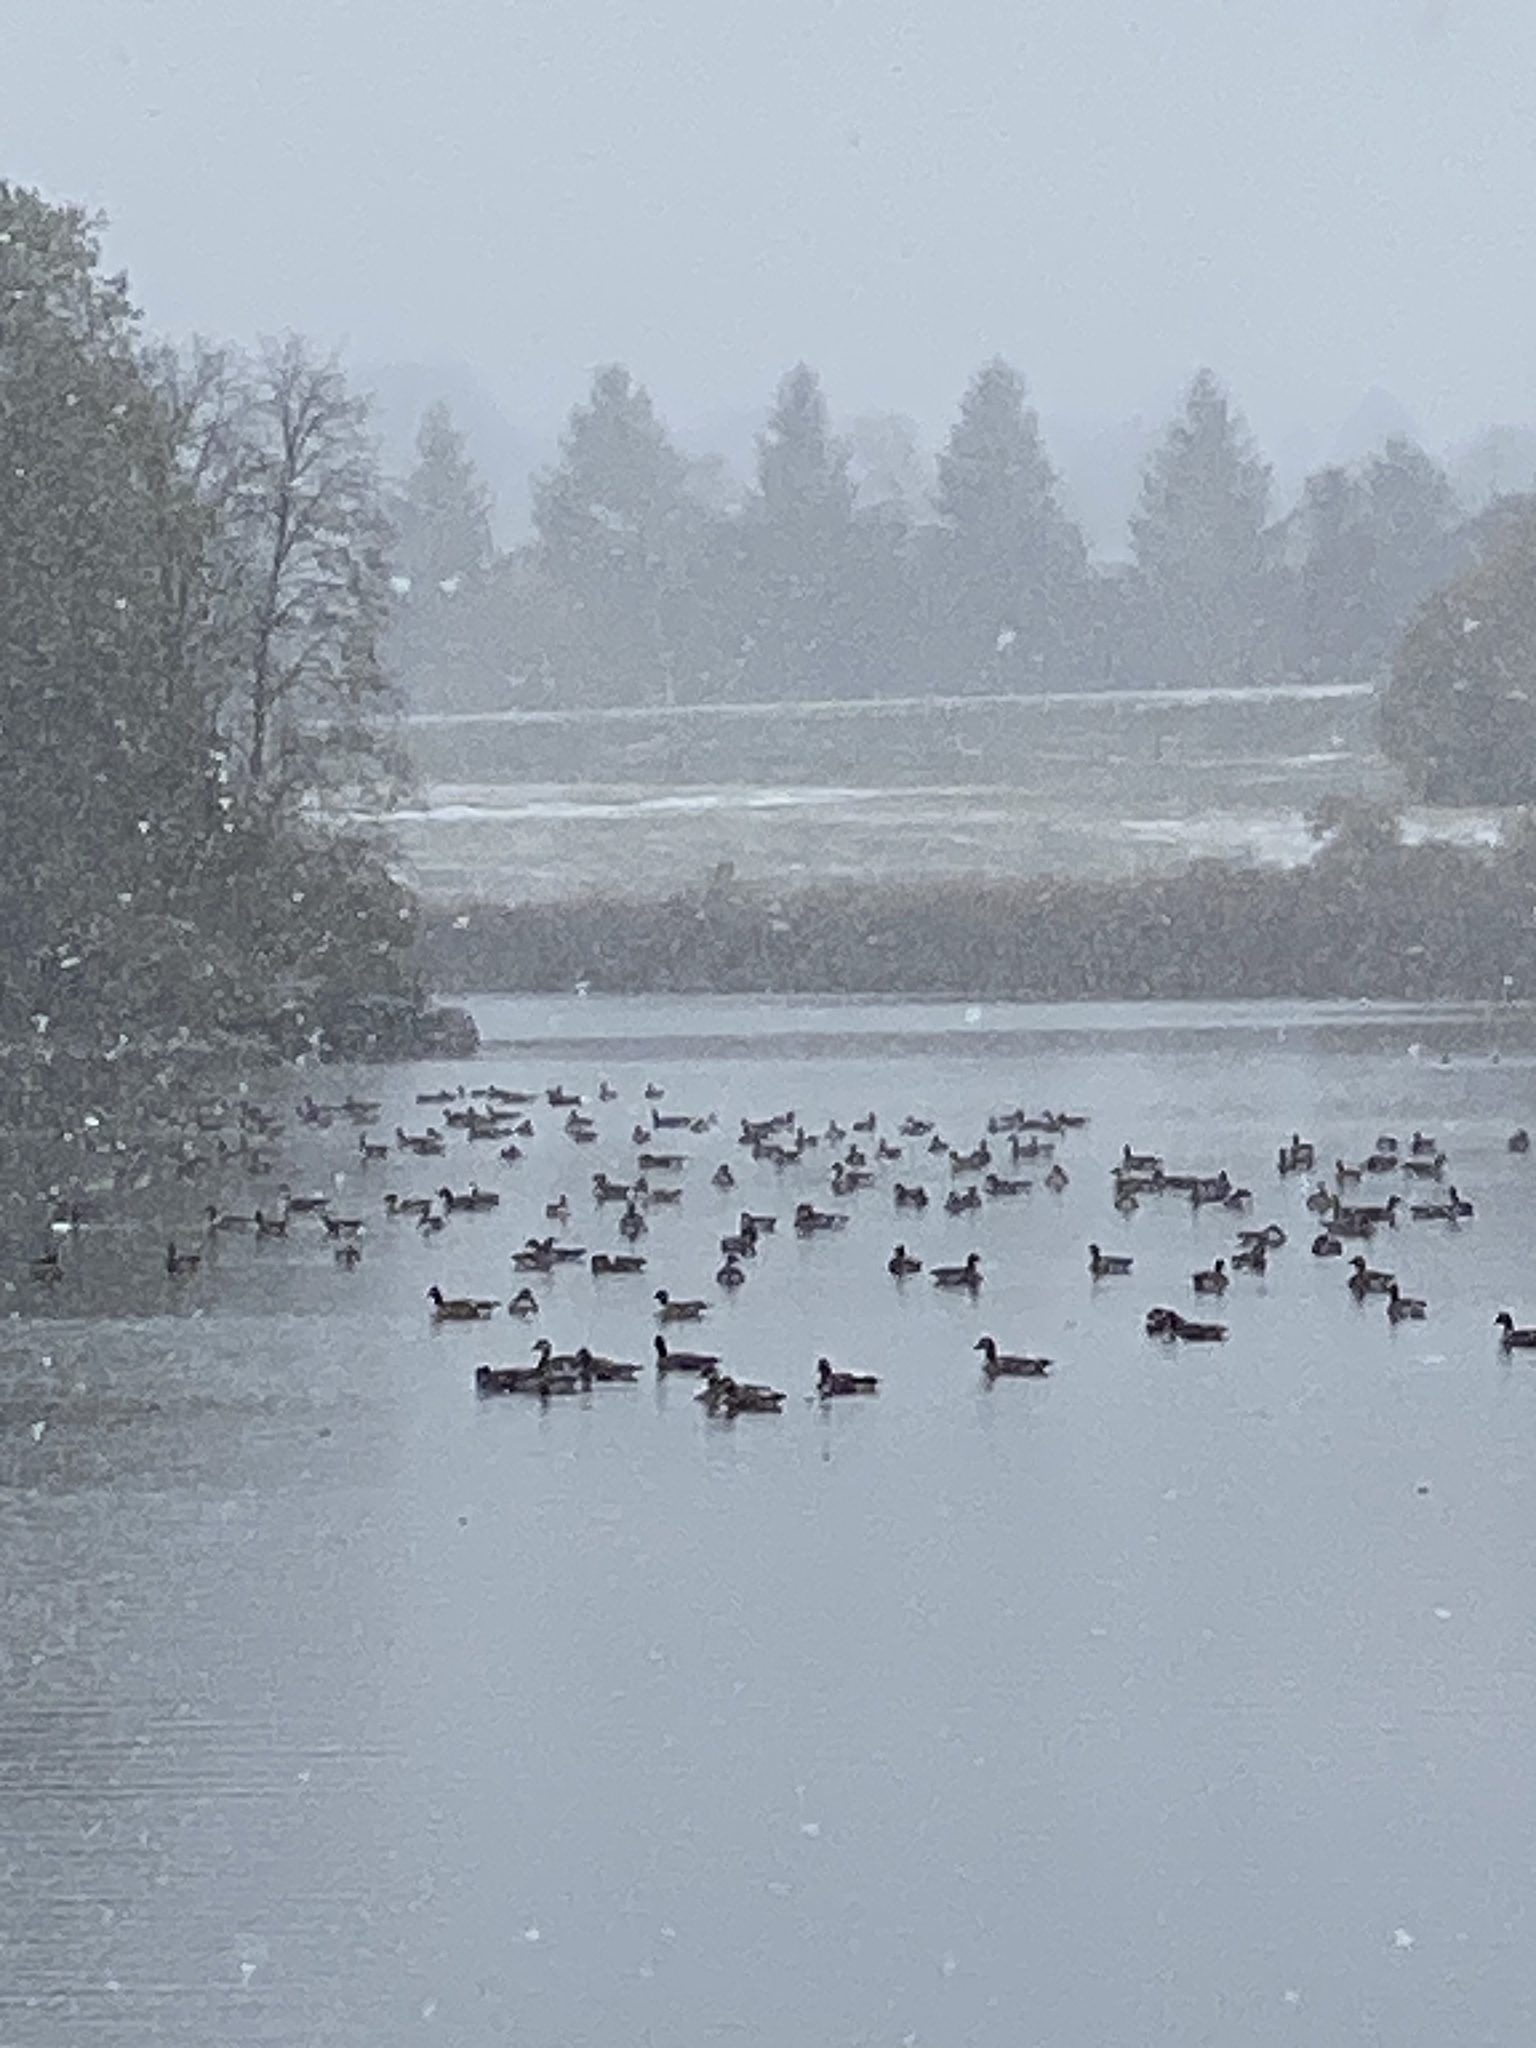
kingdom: Animalia
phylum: Chordata
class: Aves
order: Anseriformes
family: Anatidae
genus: Branta
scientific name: Branta canadensis
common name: Canada goose
